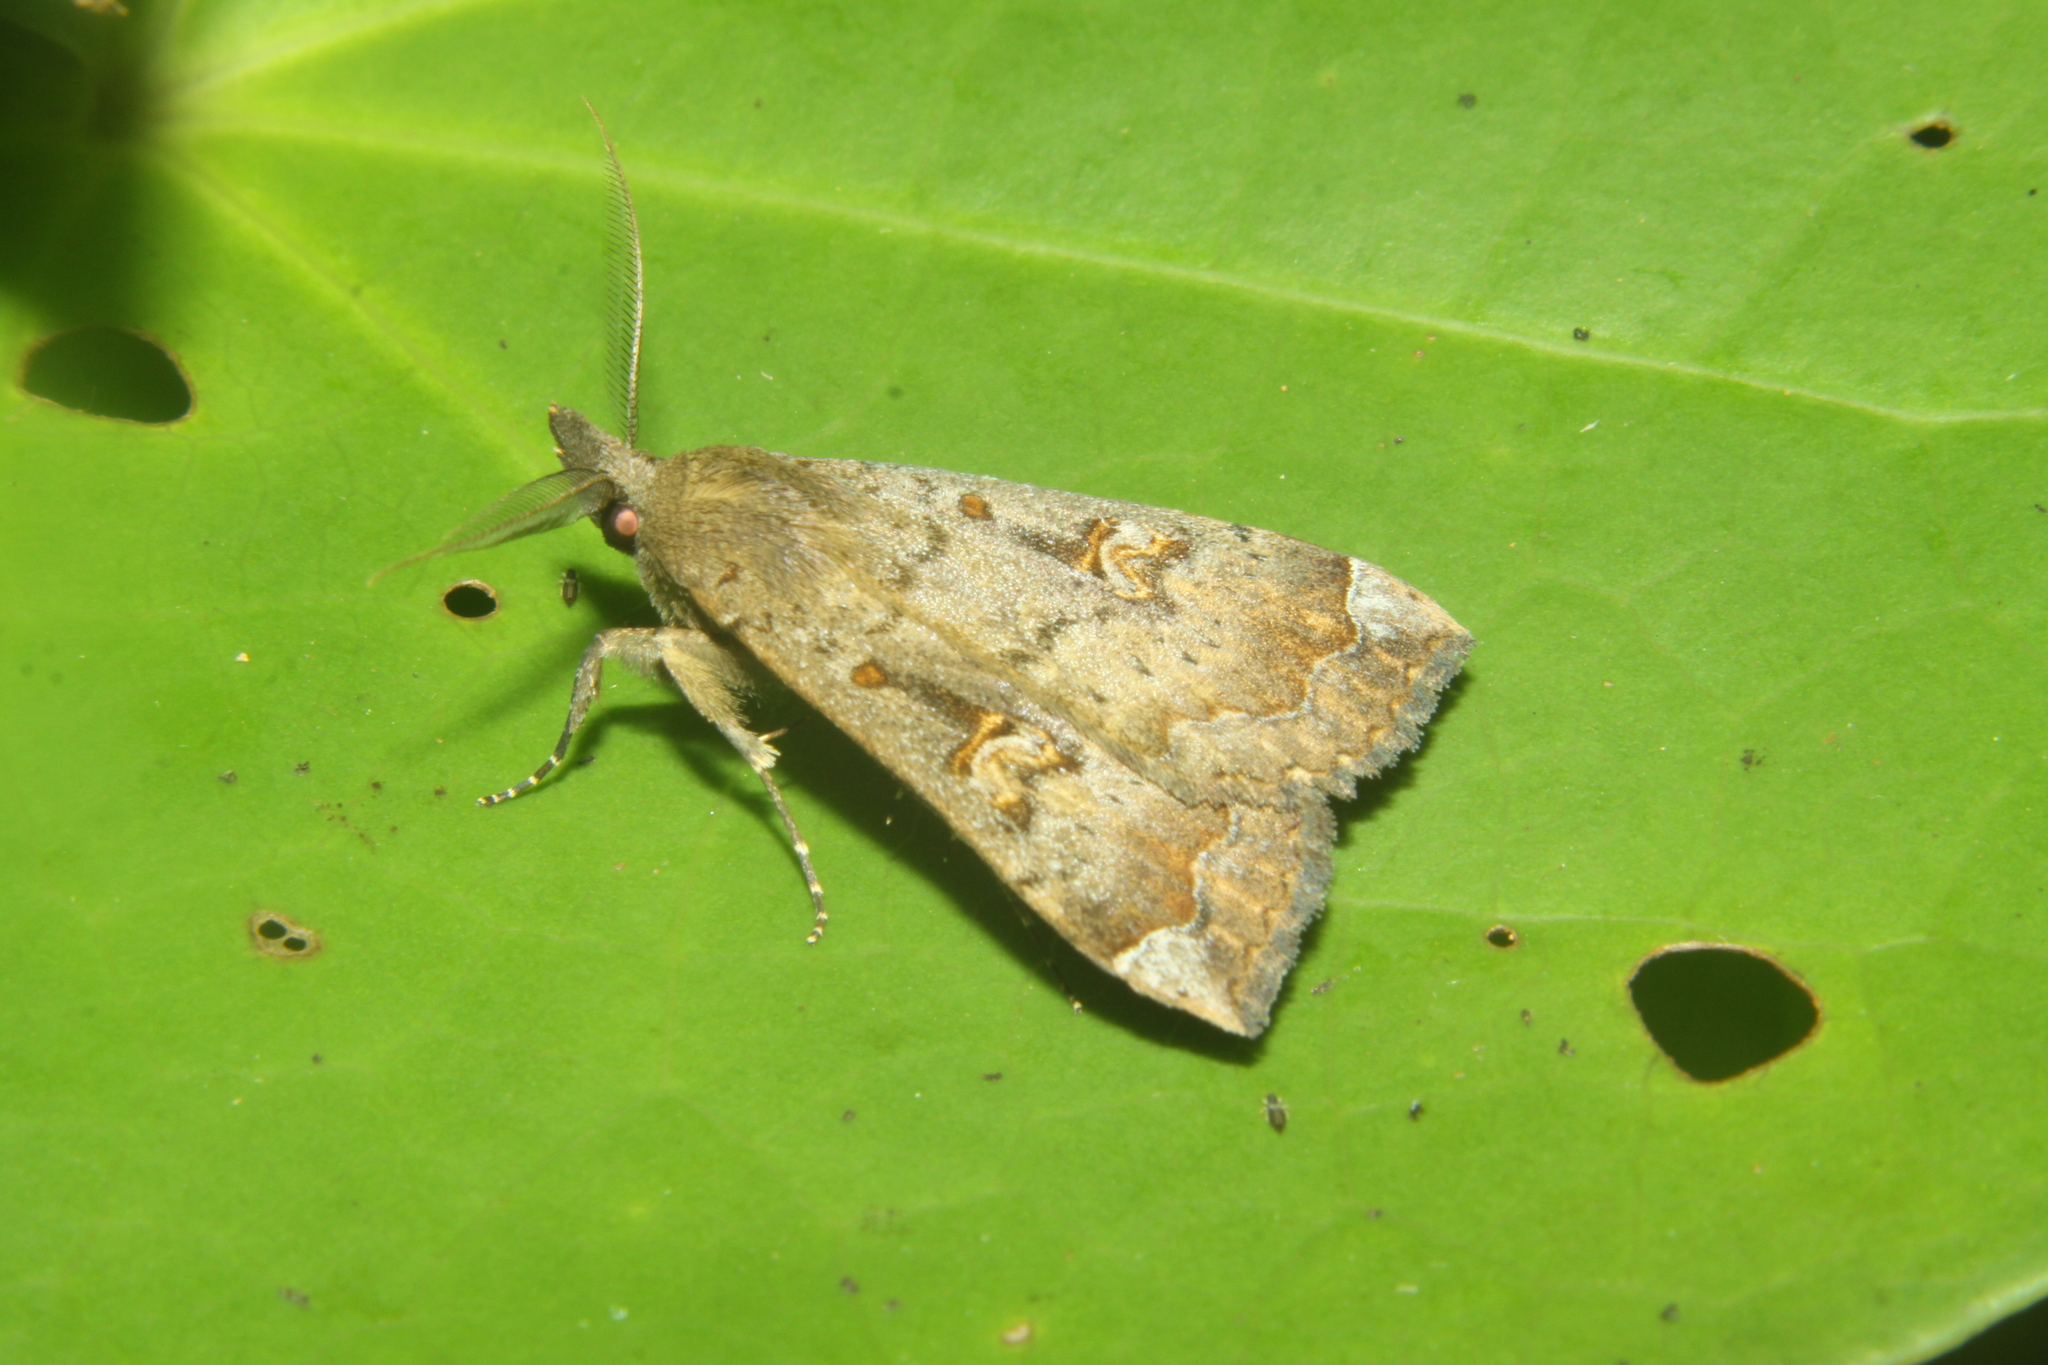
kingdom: Animalia
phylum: Arthropoda
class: Insecta
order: Lepidoptera
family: Erebidae
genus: Rhapsa
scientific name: Rhapsa scotosialis
